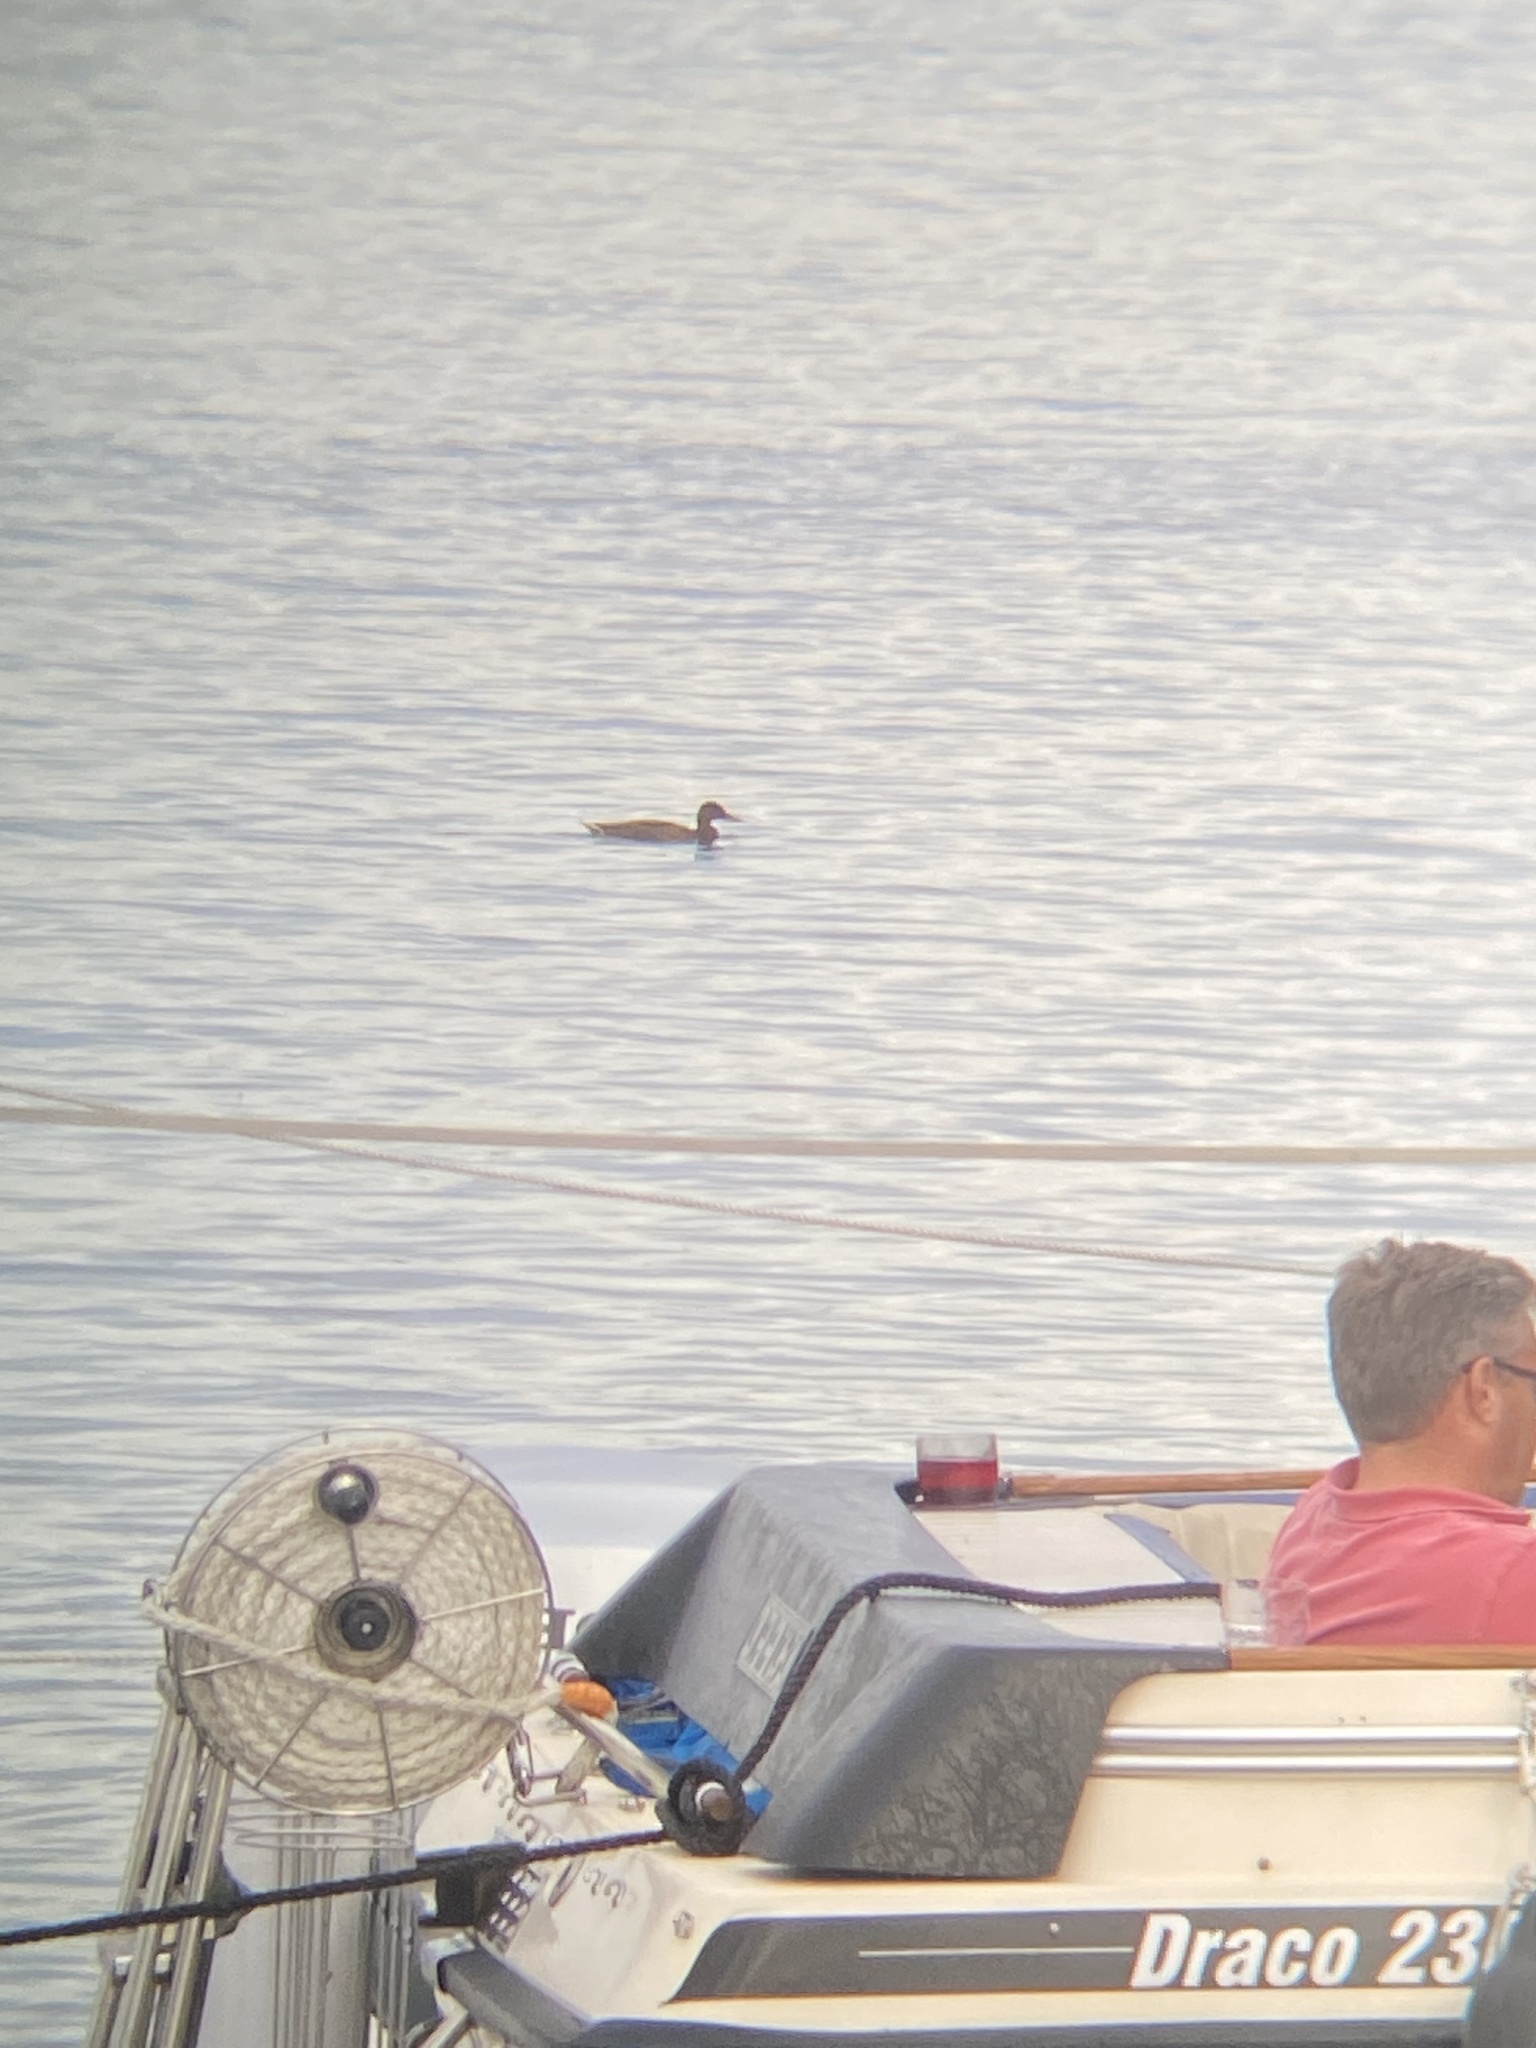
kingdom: Animalia
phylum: Chordata
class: Aves
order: Anseriformes
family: Anatidae
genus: Anas
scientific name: Anas platyrhynchos
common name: Mallard
